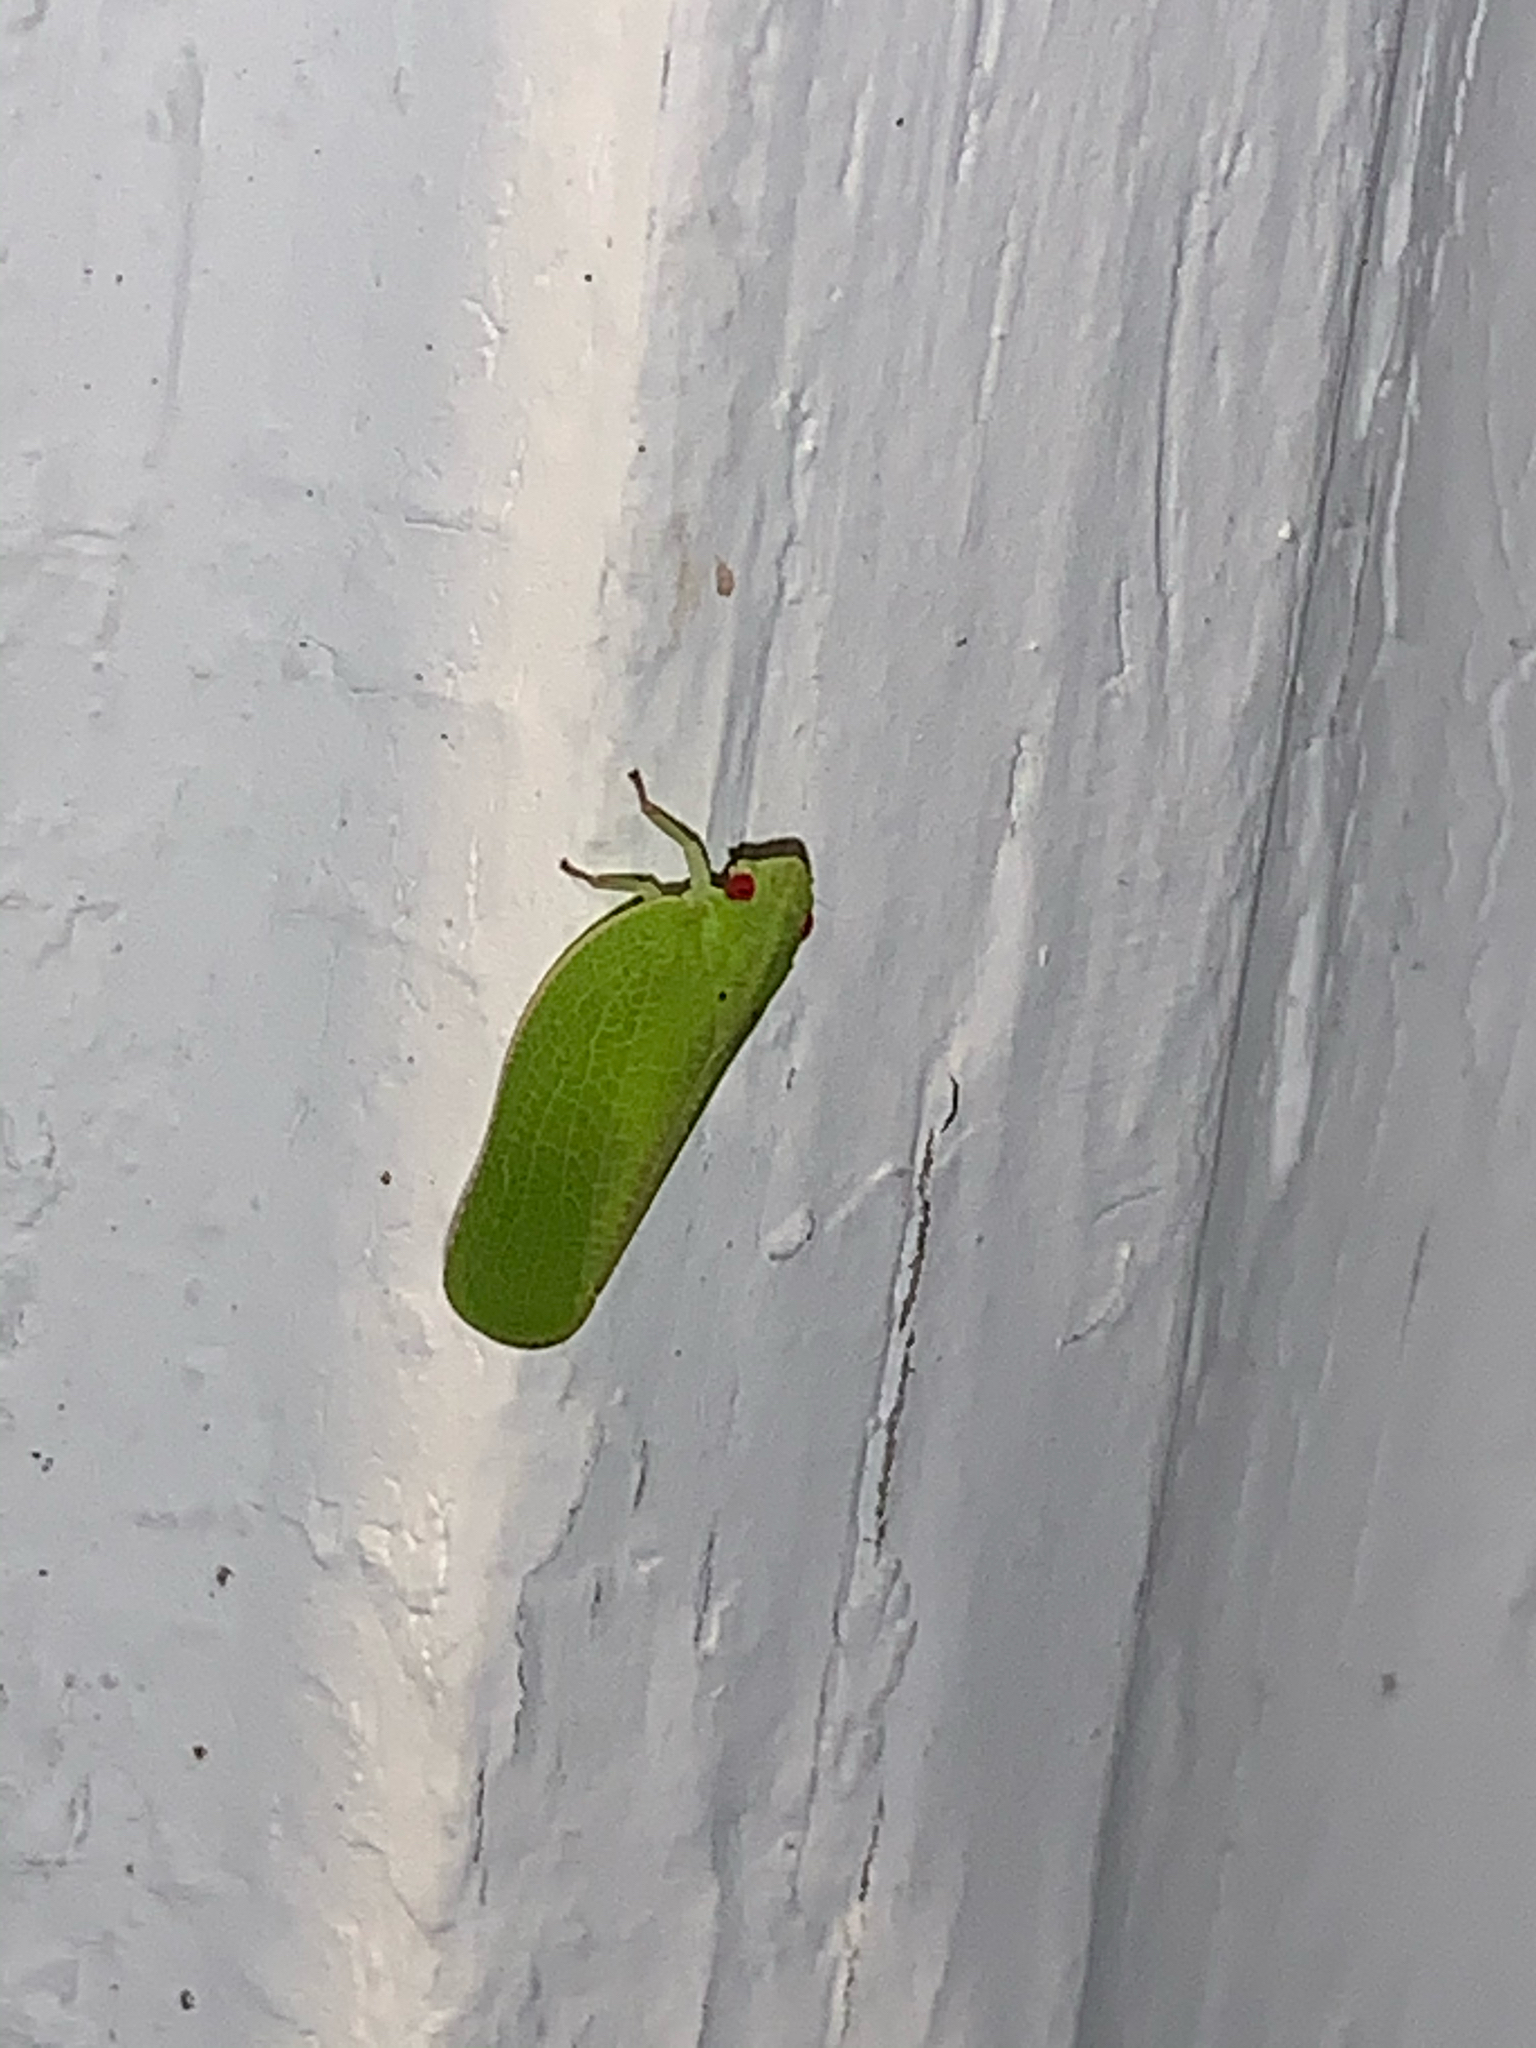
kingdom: Animalia
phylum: Arthropoda
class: Insecta
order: Hemiptera
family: Acanaloniidae
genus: Acanalonia
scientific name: Acanalonia conica
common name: Green cone-headed planthopper
